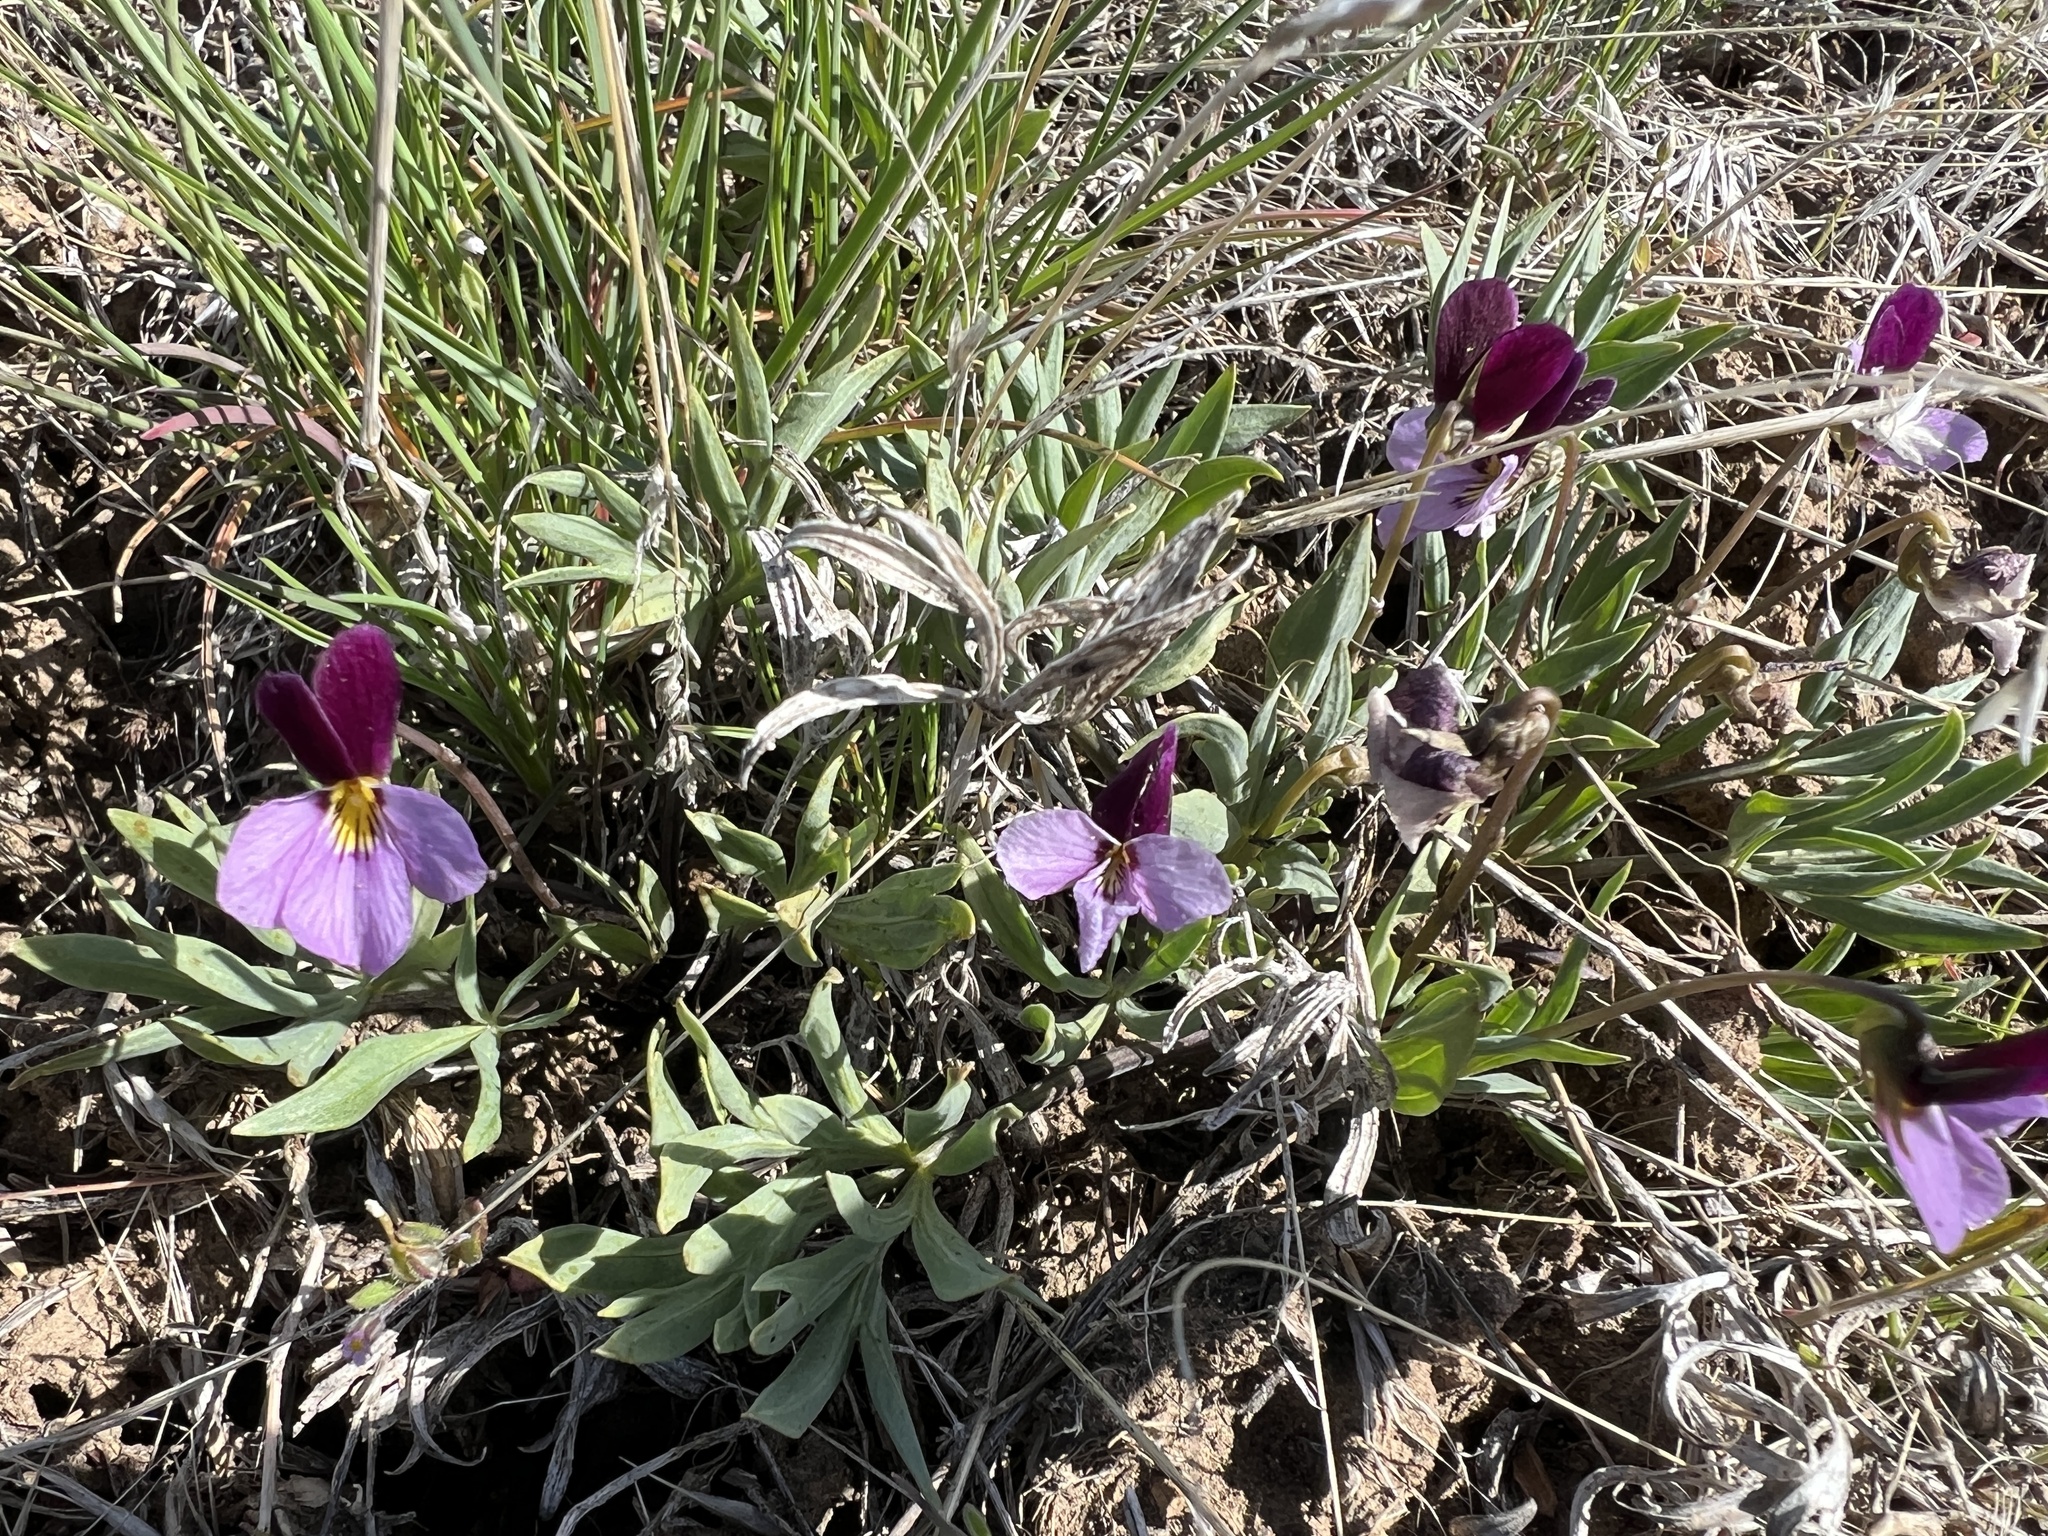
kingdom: Plantae
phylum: Tracheophyta
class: Magnoliopsida
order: Malpighiales
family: Violaceae
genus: Viola
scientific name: Viola trinervata
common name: Sagebrush violet
